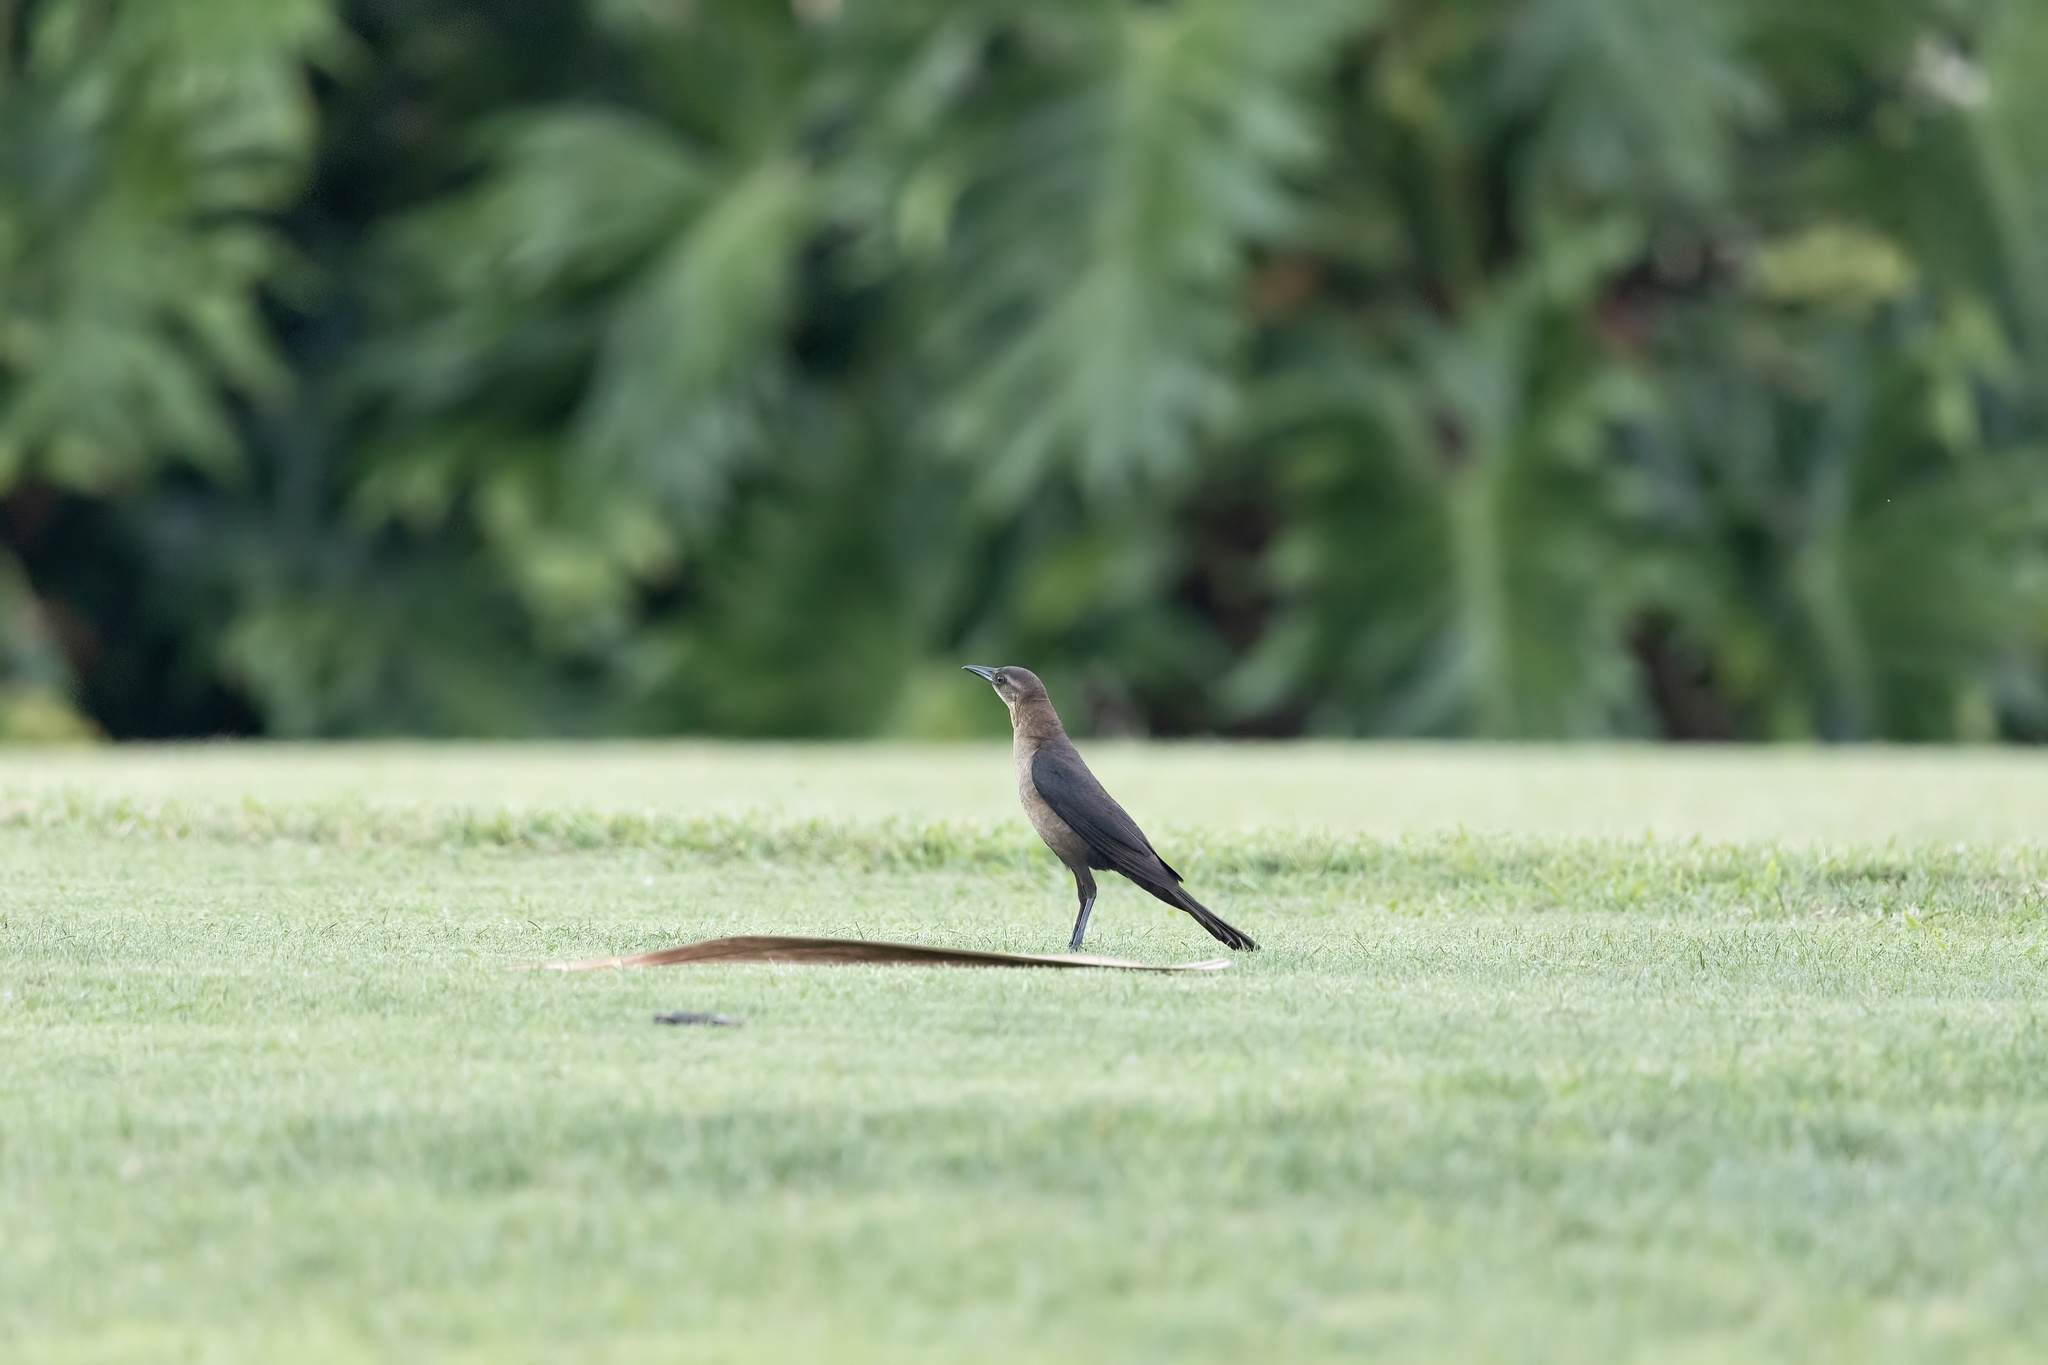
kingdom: Animalia
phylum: Chordata
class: Aves
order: Passeriformes
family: Icteridae
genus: Quiscalus
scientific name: Quiscalus major
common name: Boat-tailed grackle
